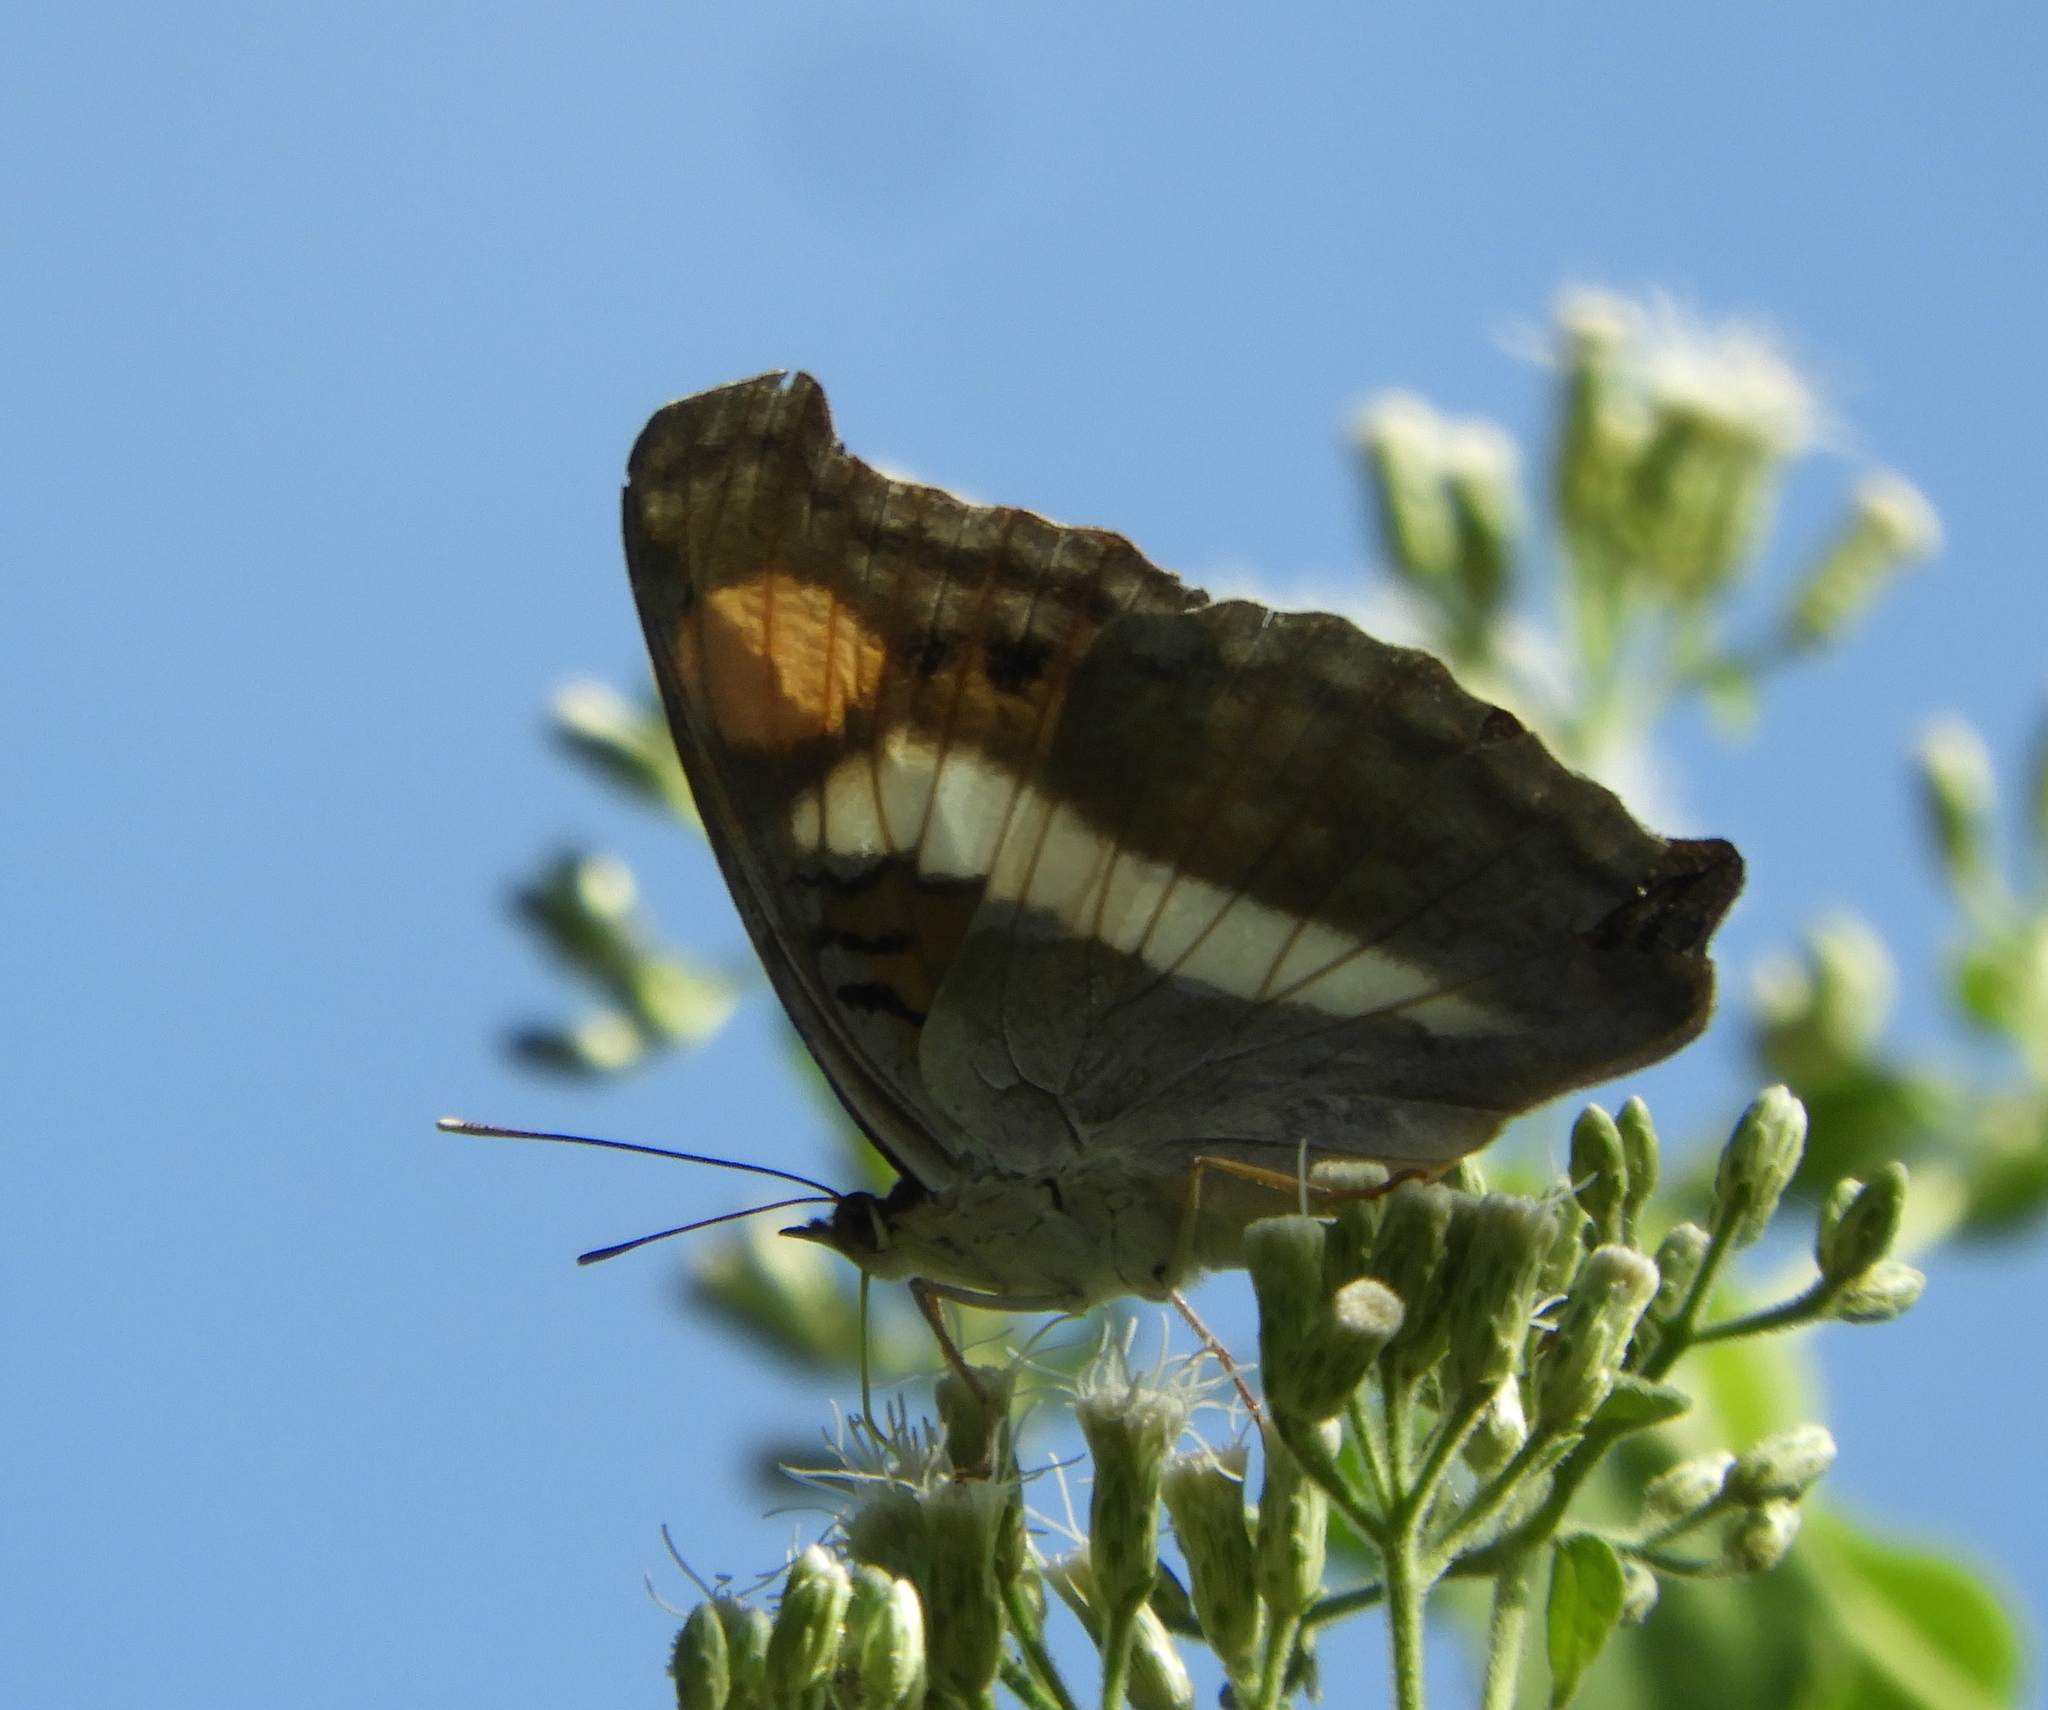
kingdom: Animalia
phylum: Arthropoda
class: Insecta
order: Lepidoptera
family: Nymphalidae
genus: Doxocopa
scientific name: Doxocopa laure
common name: Silver emperor
